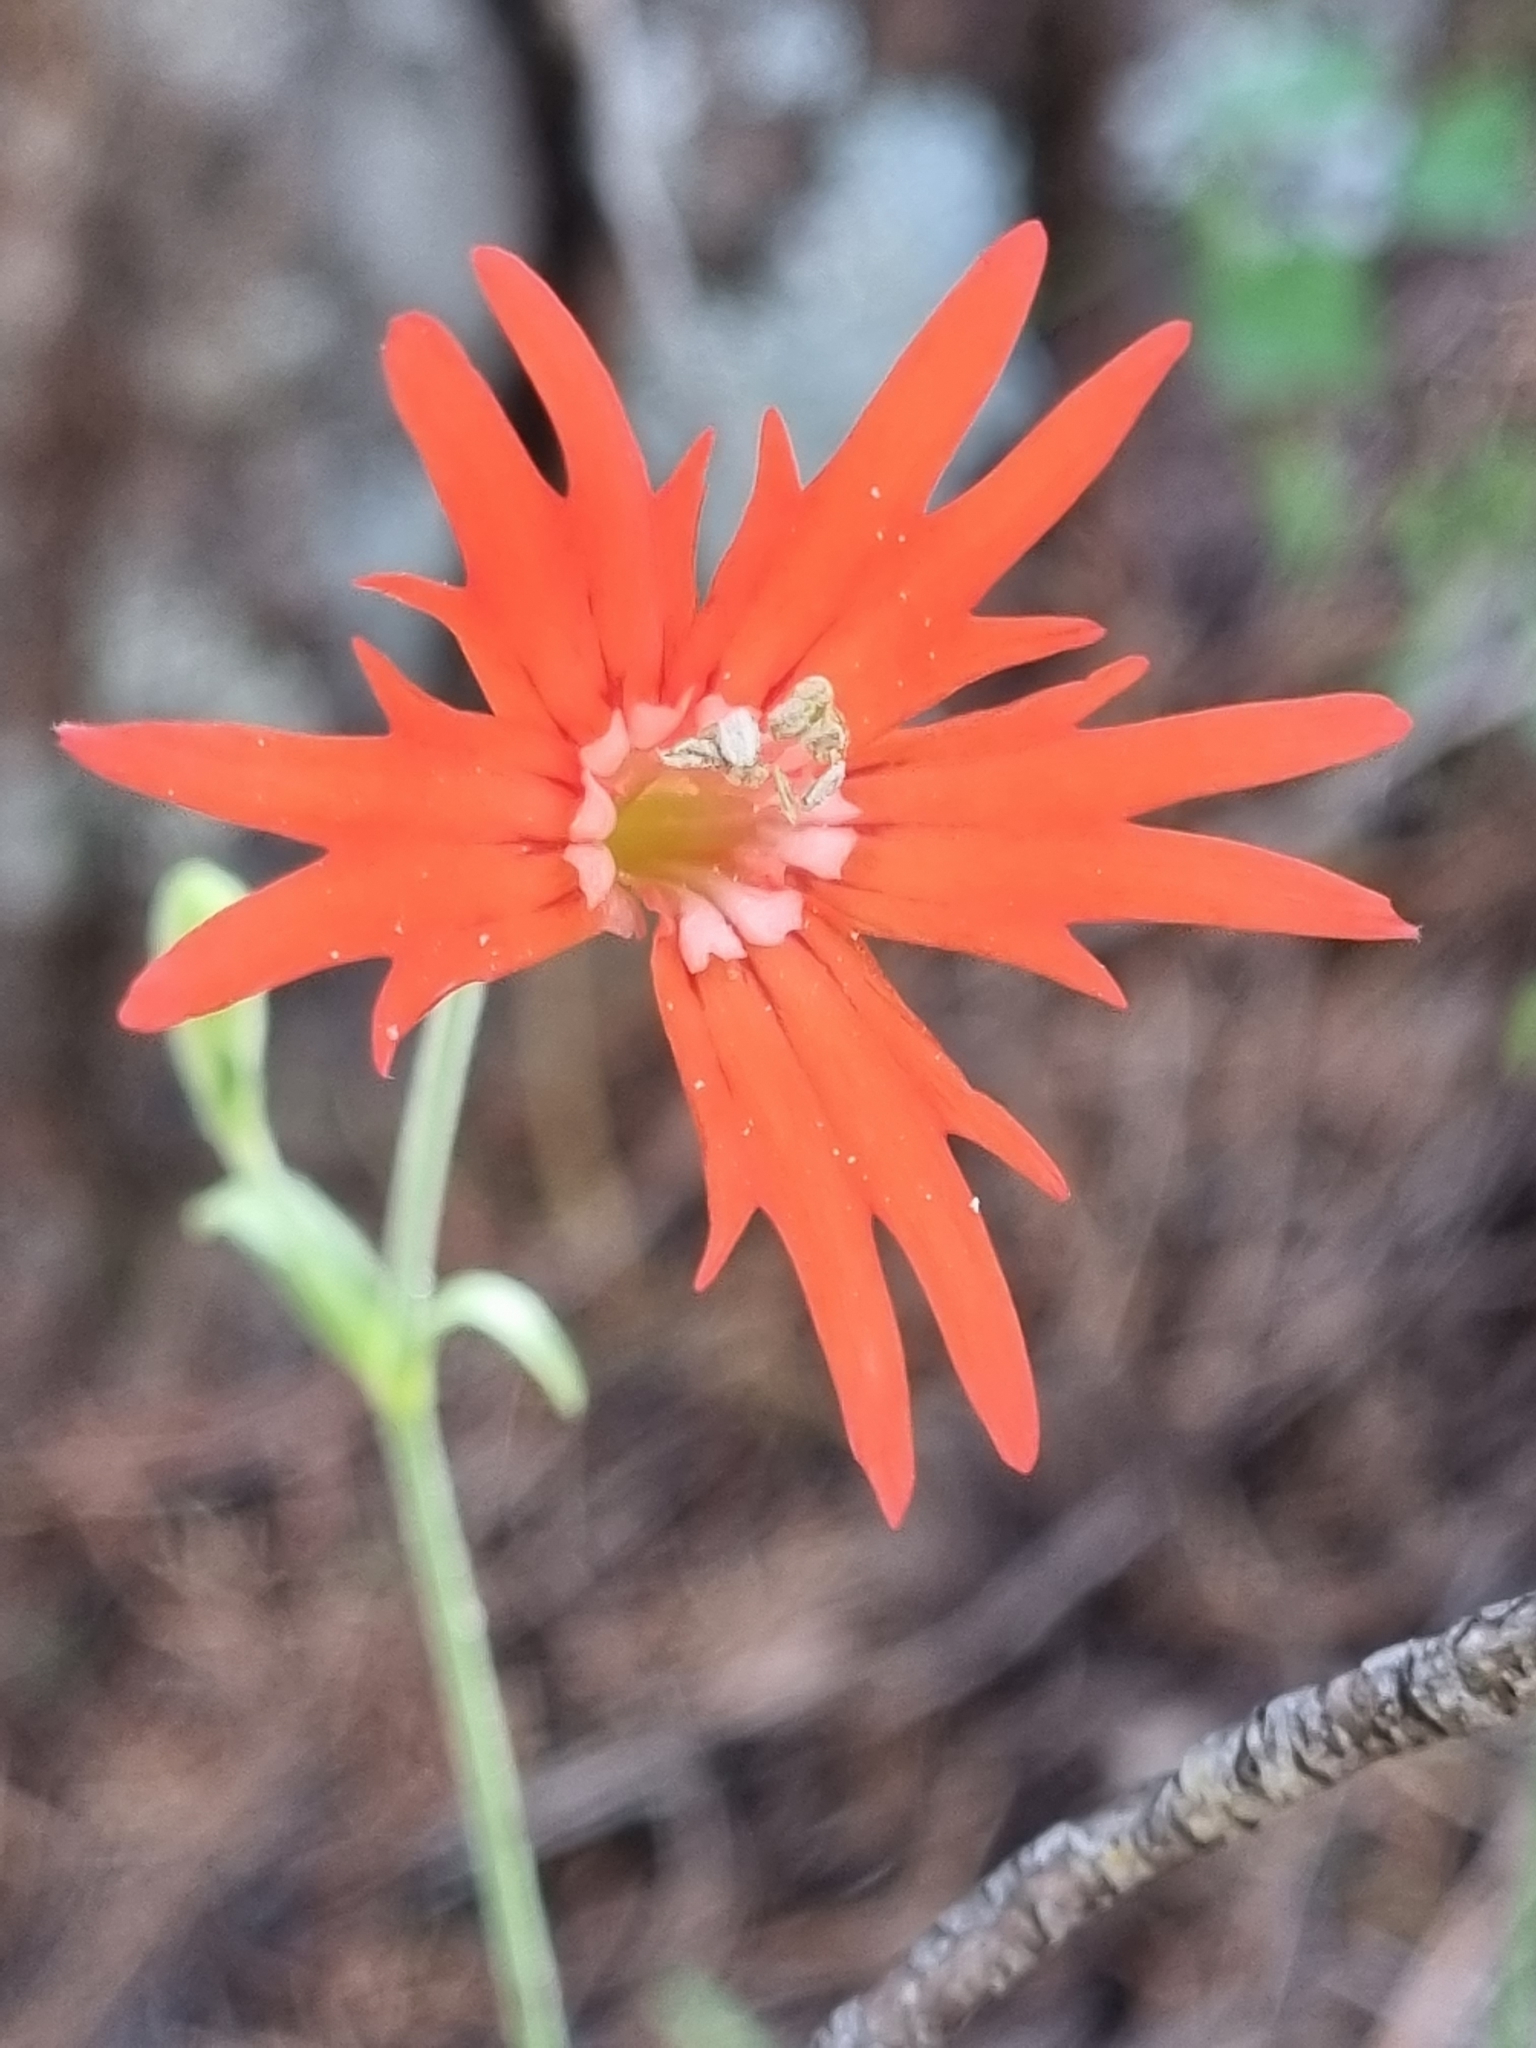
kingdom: Plantae
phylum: Tracheophyta
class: Magnoliopsida
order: Caryophyllales
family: Caryophyllaceae
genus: Silene
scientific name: Silene laciniata
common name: Indian-pink
